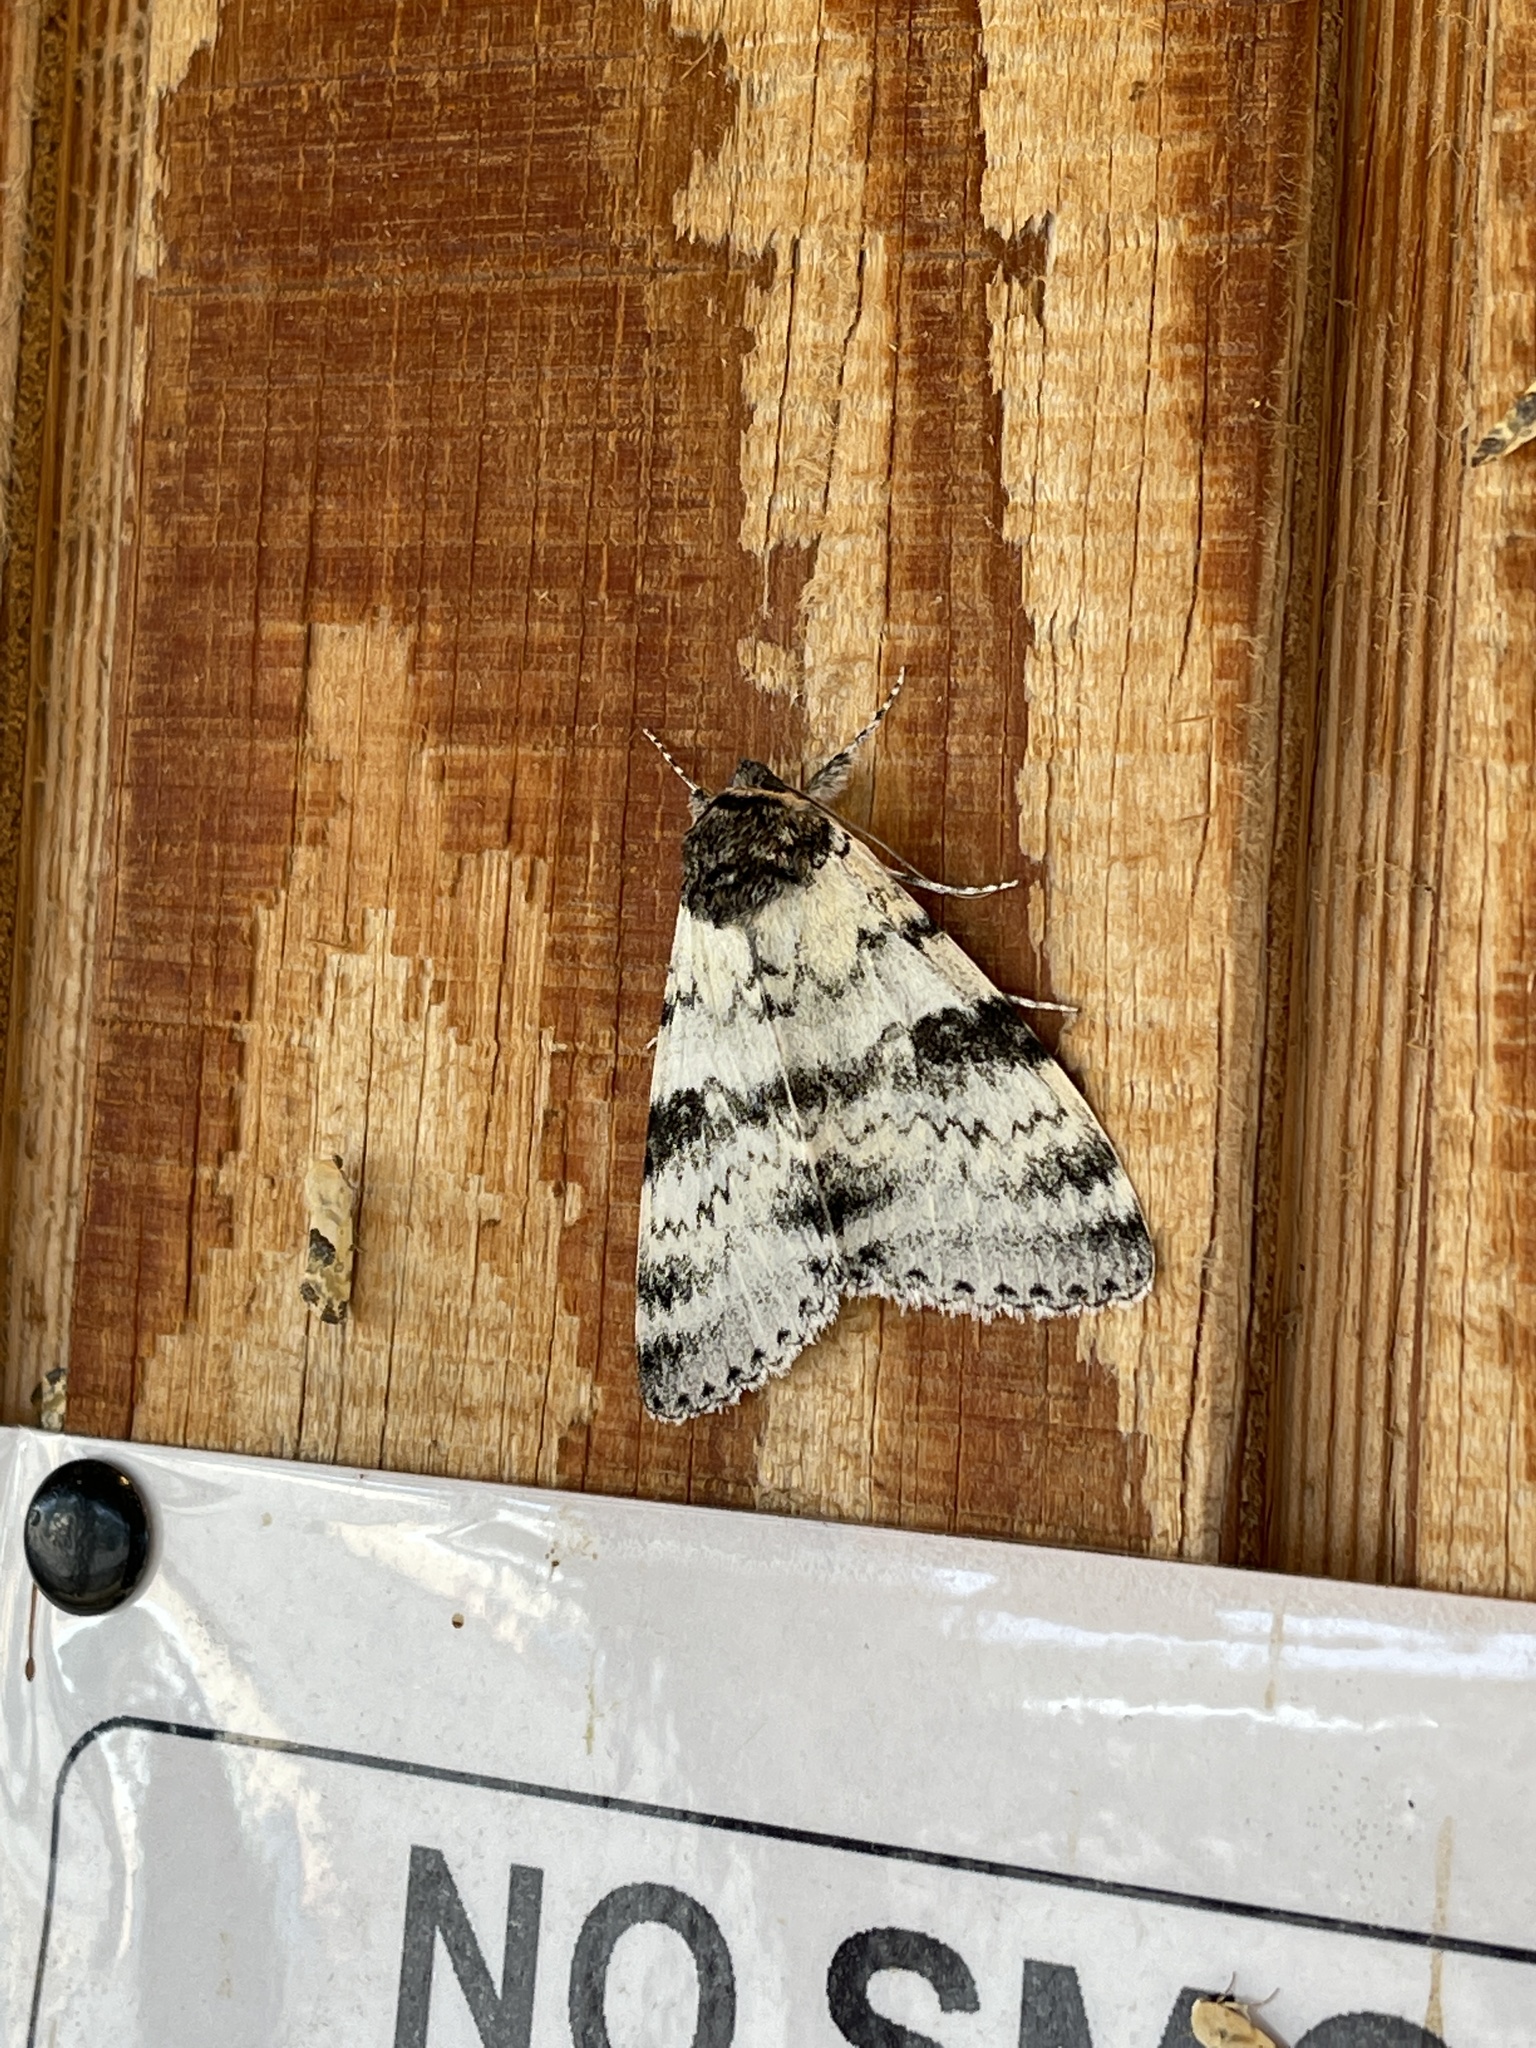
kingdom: Animalia
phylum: Arthropoda
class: Insecta
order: Lepidoptera
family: Erebidae
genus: Catocala
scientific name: Catocala relicta
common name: White underwing
